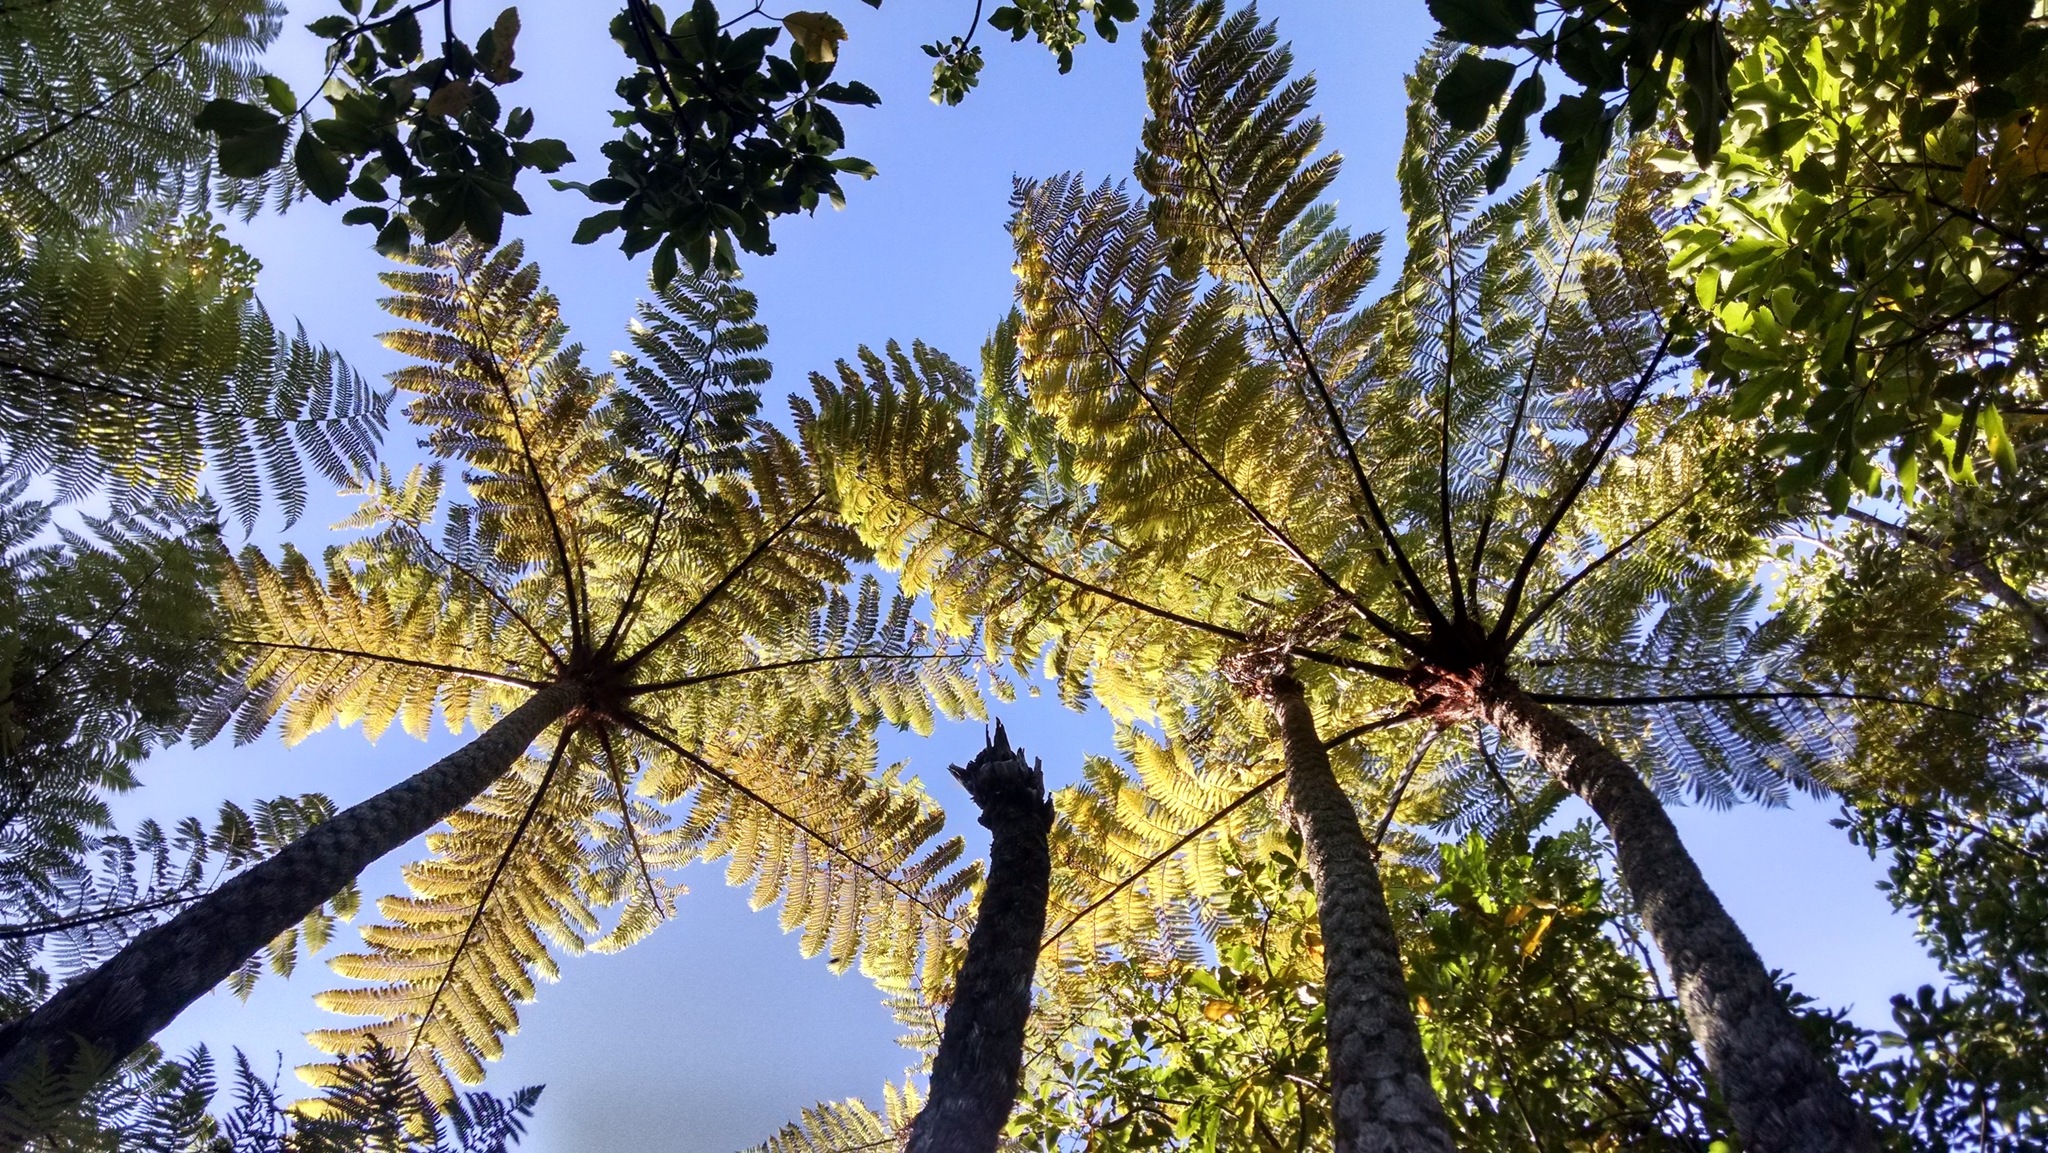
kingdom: Plantae
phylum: Tracheophyta
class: Polypodiopsida
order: Cyatheales
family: Cyatheaceae
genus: Sphaeropteris
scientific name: Sphaeropteris medullaris
